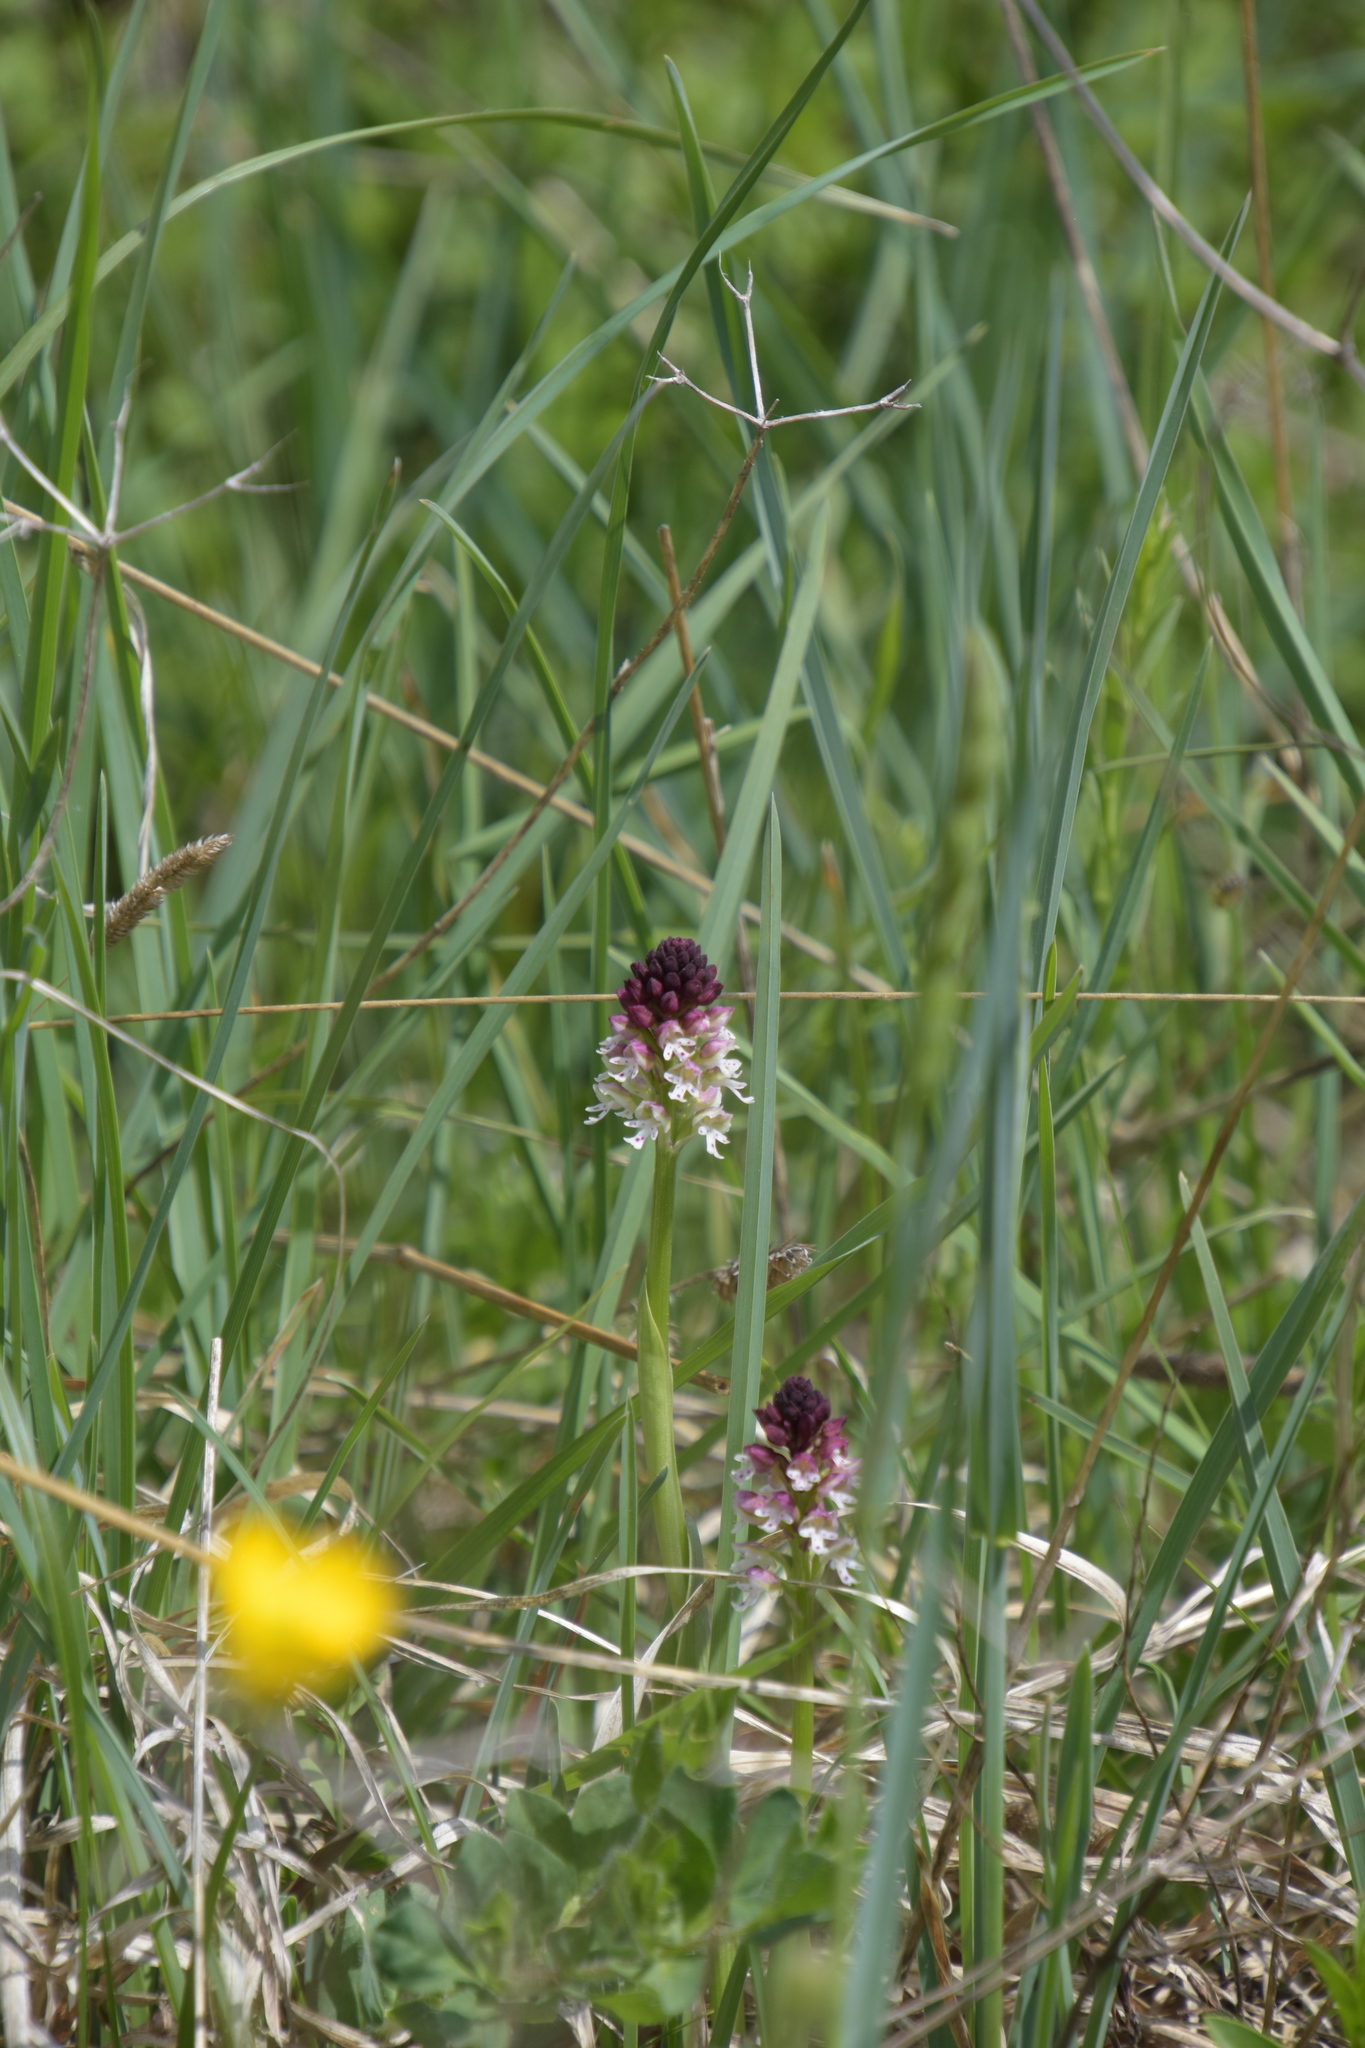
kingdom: Plantae
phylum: Tracheophyta
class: Liliopsida
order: Asparagales
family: Orchidaceae
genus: Neotinea
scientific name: Neotinea ustulata
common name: Burnt orchid
